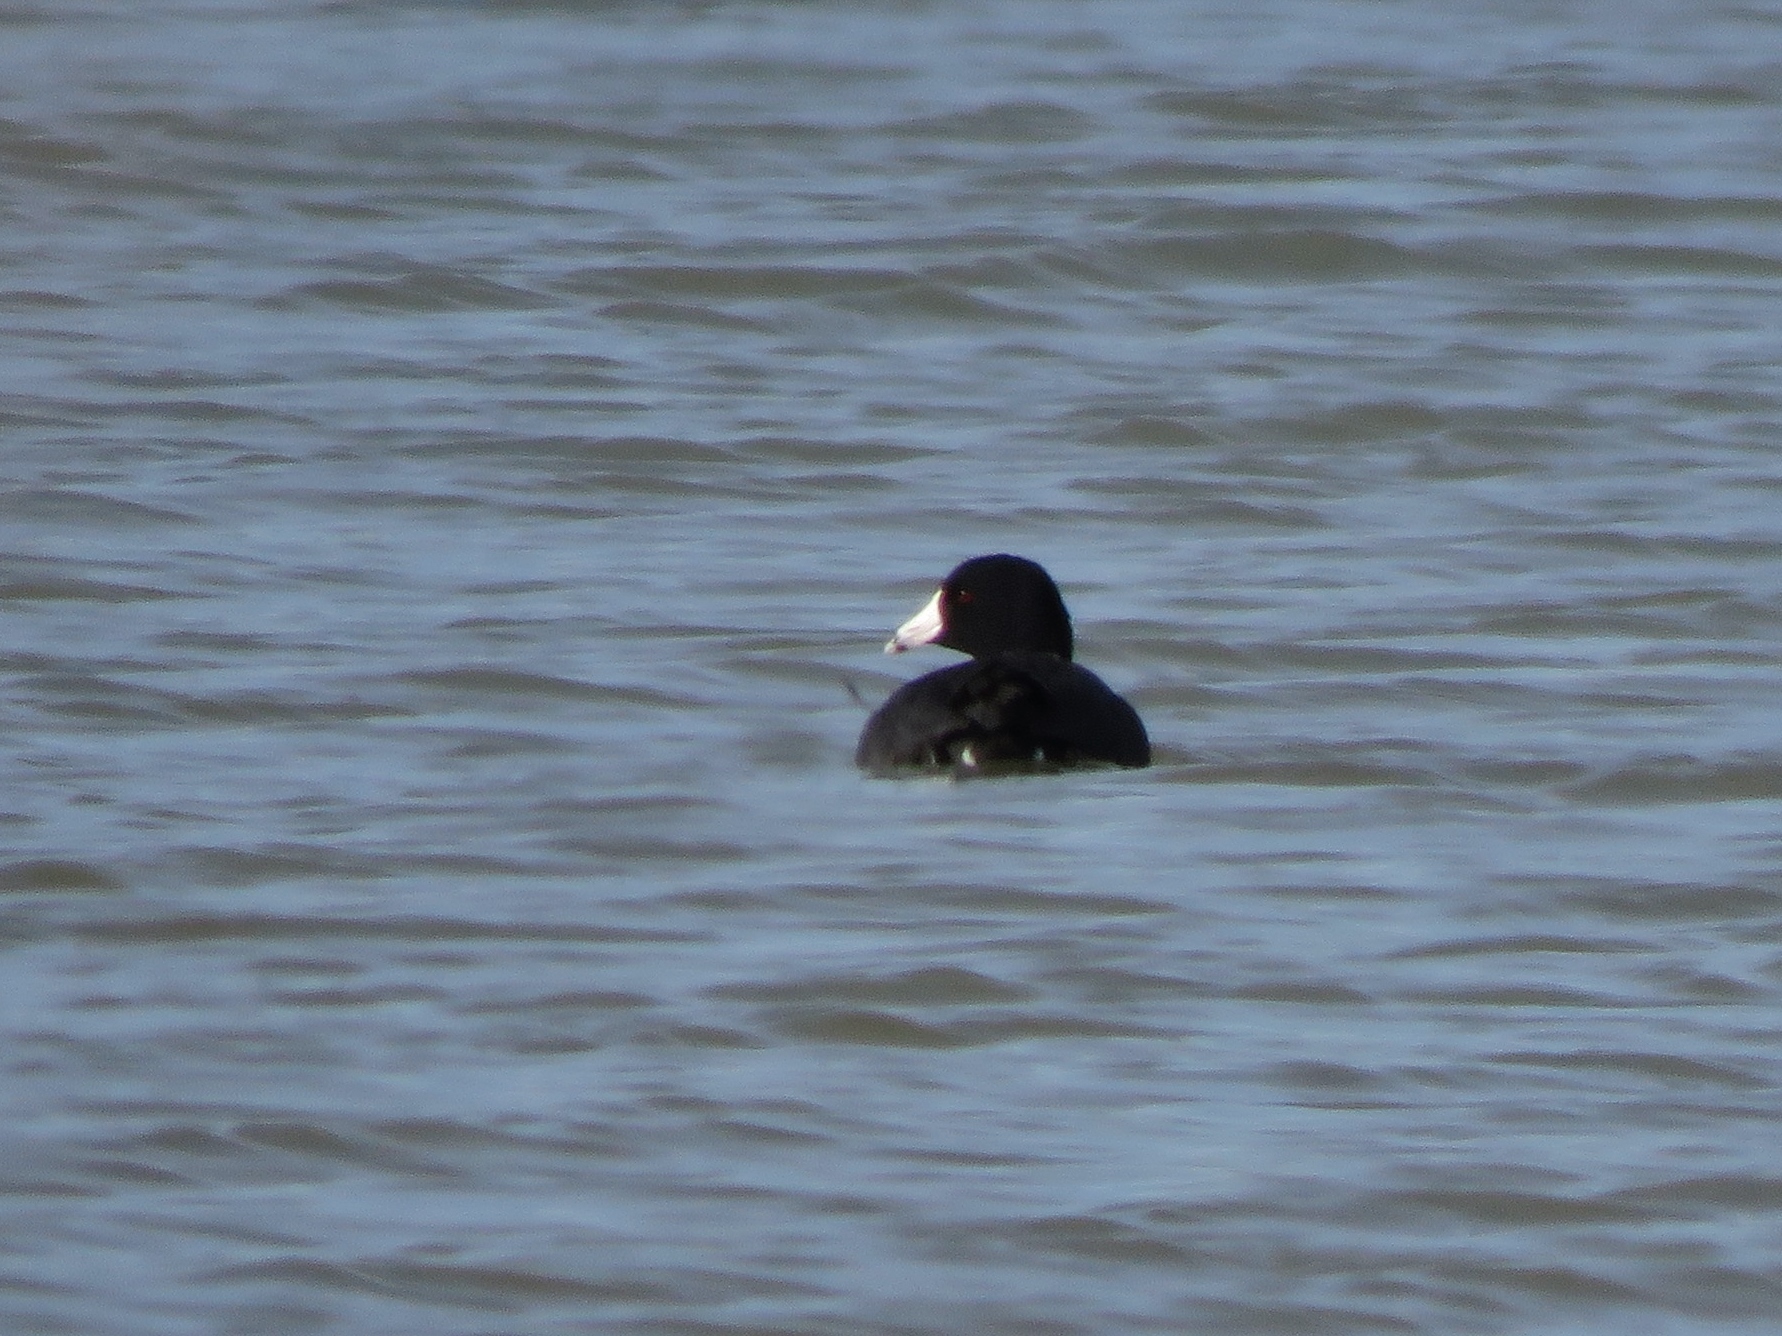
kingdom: Animalia
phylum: Chordata
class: Aves
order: Gruiformes
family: Rallidae
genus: Fulica
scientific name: Fulica americana
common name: American coot
